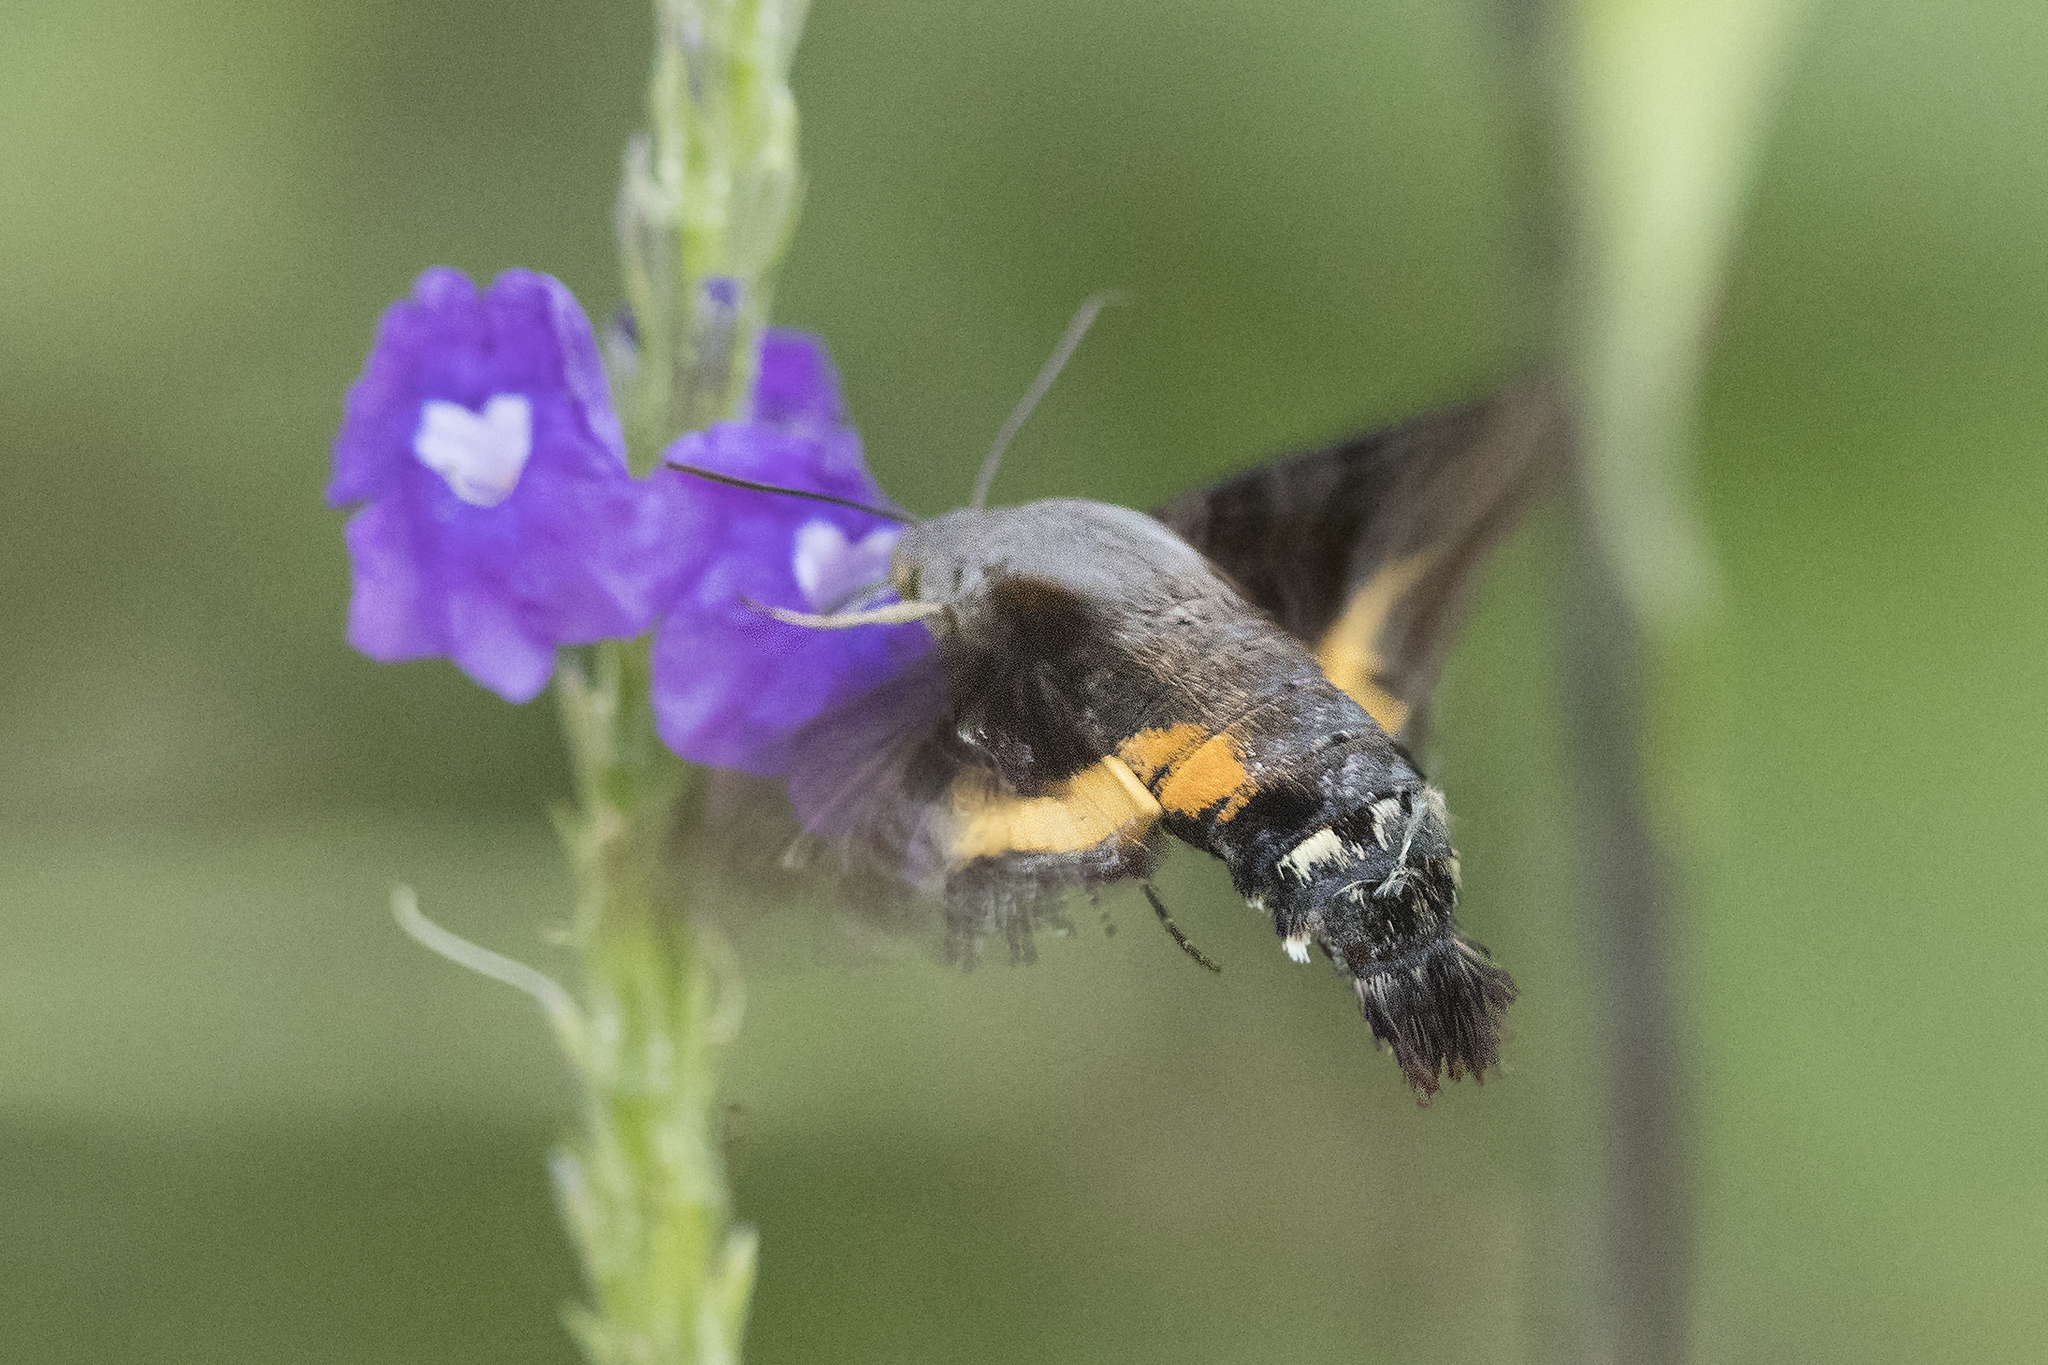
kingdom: Animalia
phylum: Arthropoda
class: Insecta
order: Lepidoptera
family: Sphingidae
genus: Aellopos
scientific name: Aellopos ceculus
